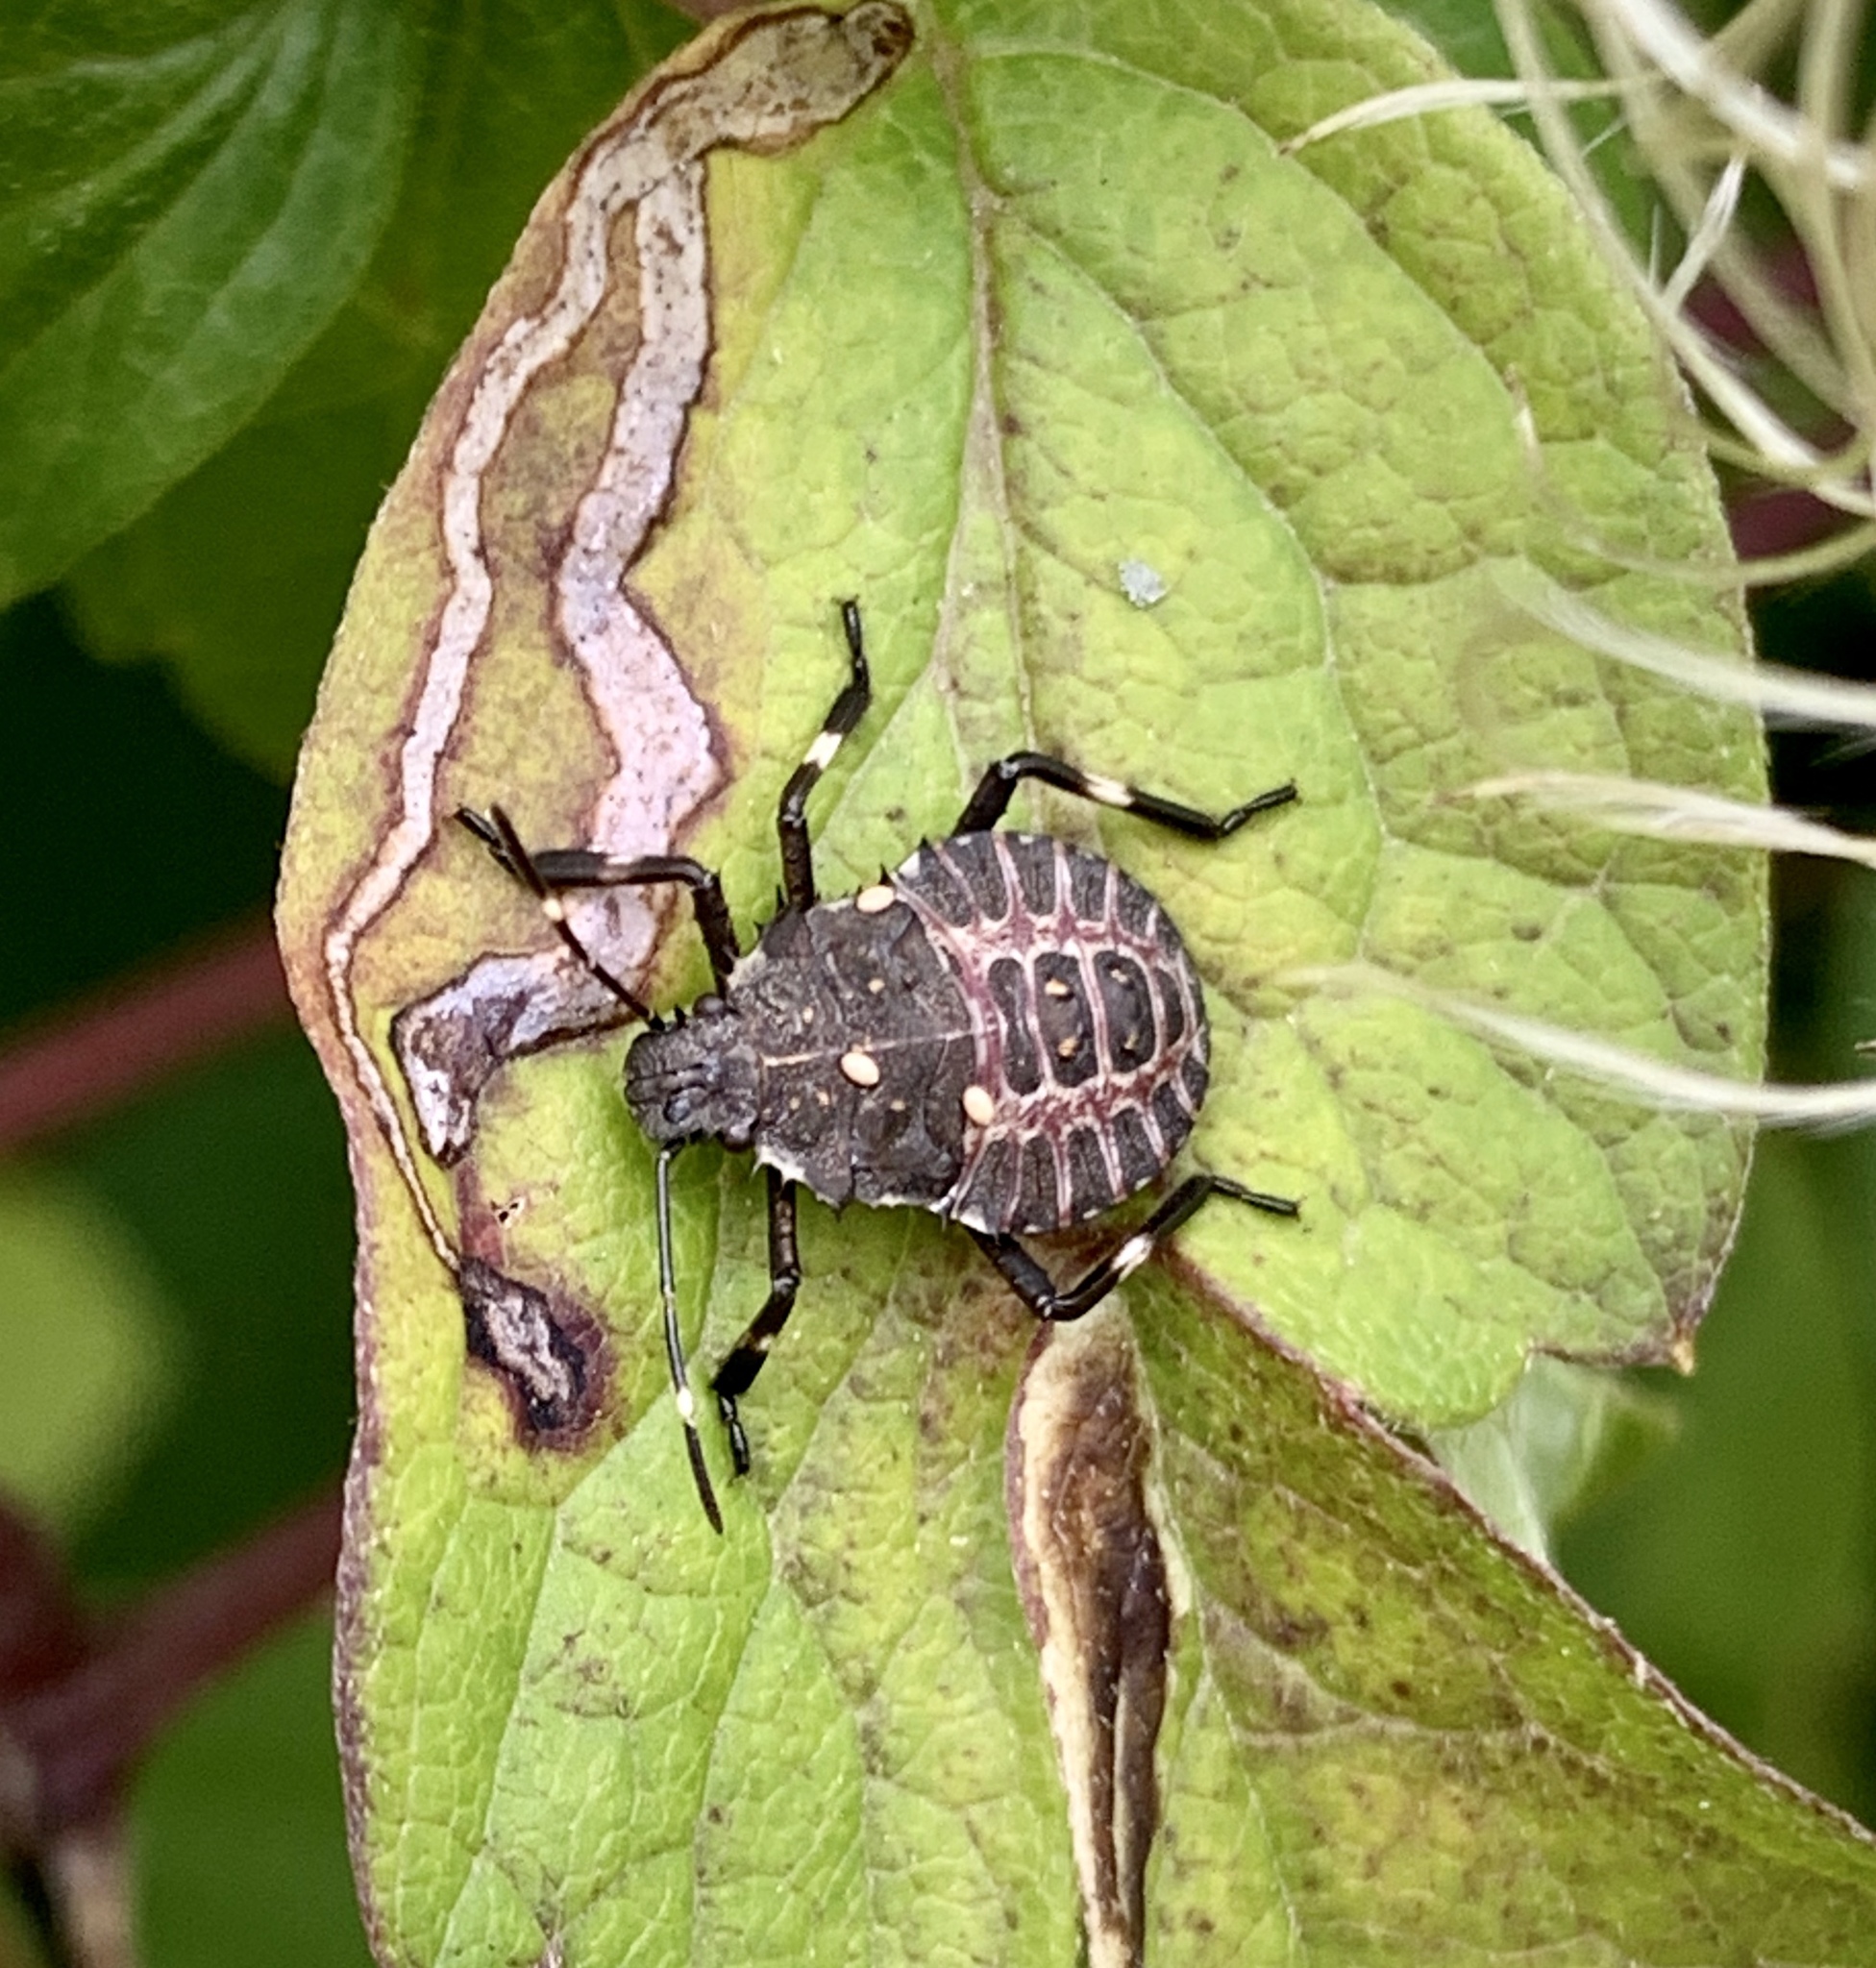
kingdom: Animalia
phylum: Arthropoda
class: Insecta
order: Hemiptera
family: Pentatomidae
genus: Halyomorpha
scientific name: Halyomorpha halys
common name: Brown marmorated stink bug
